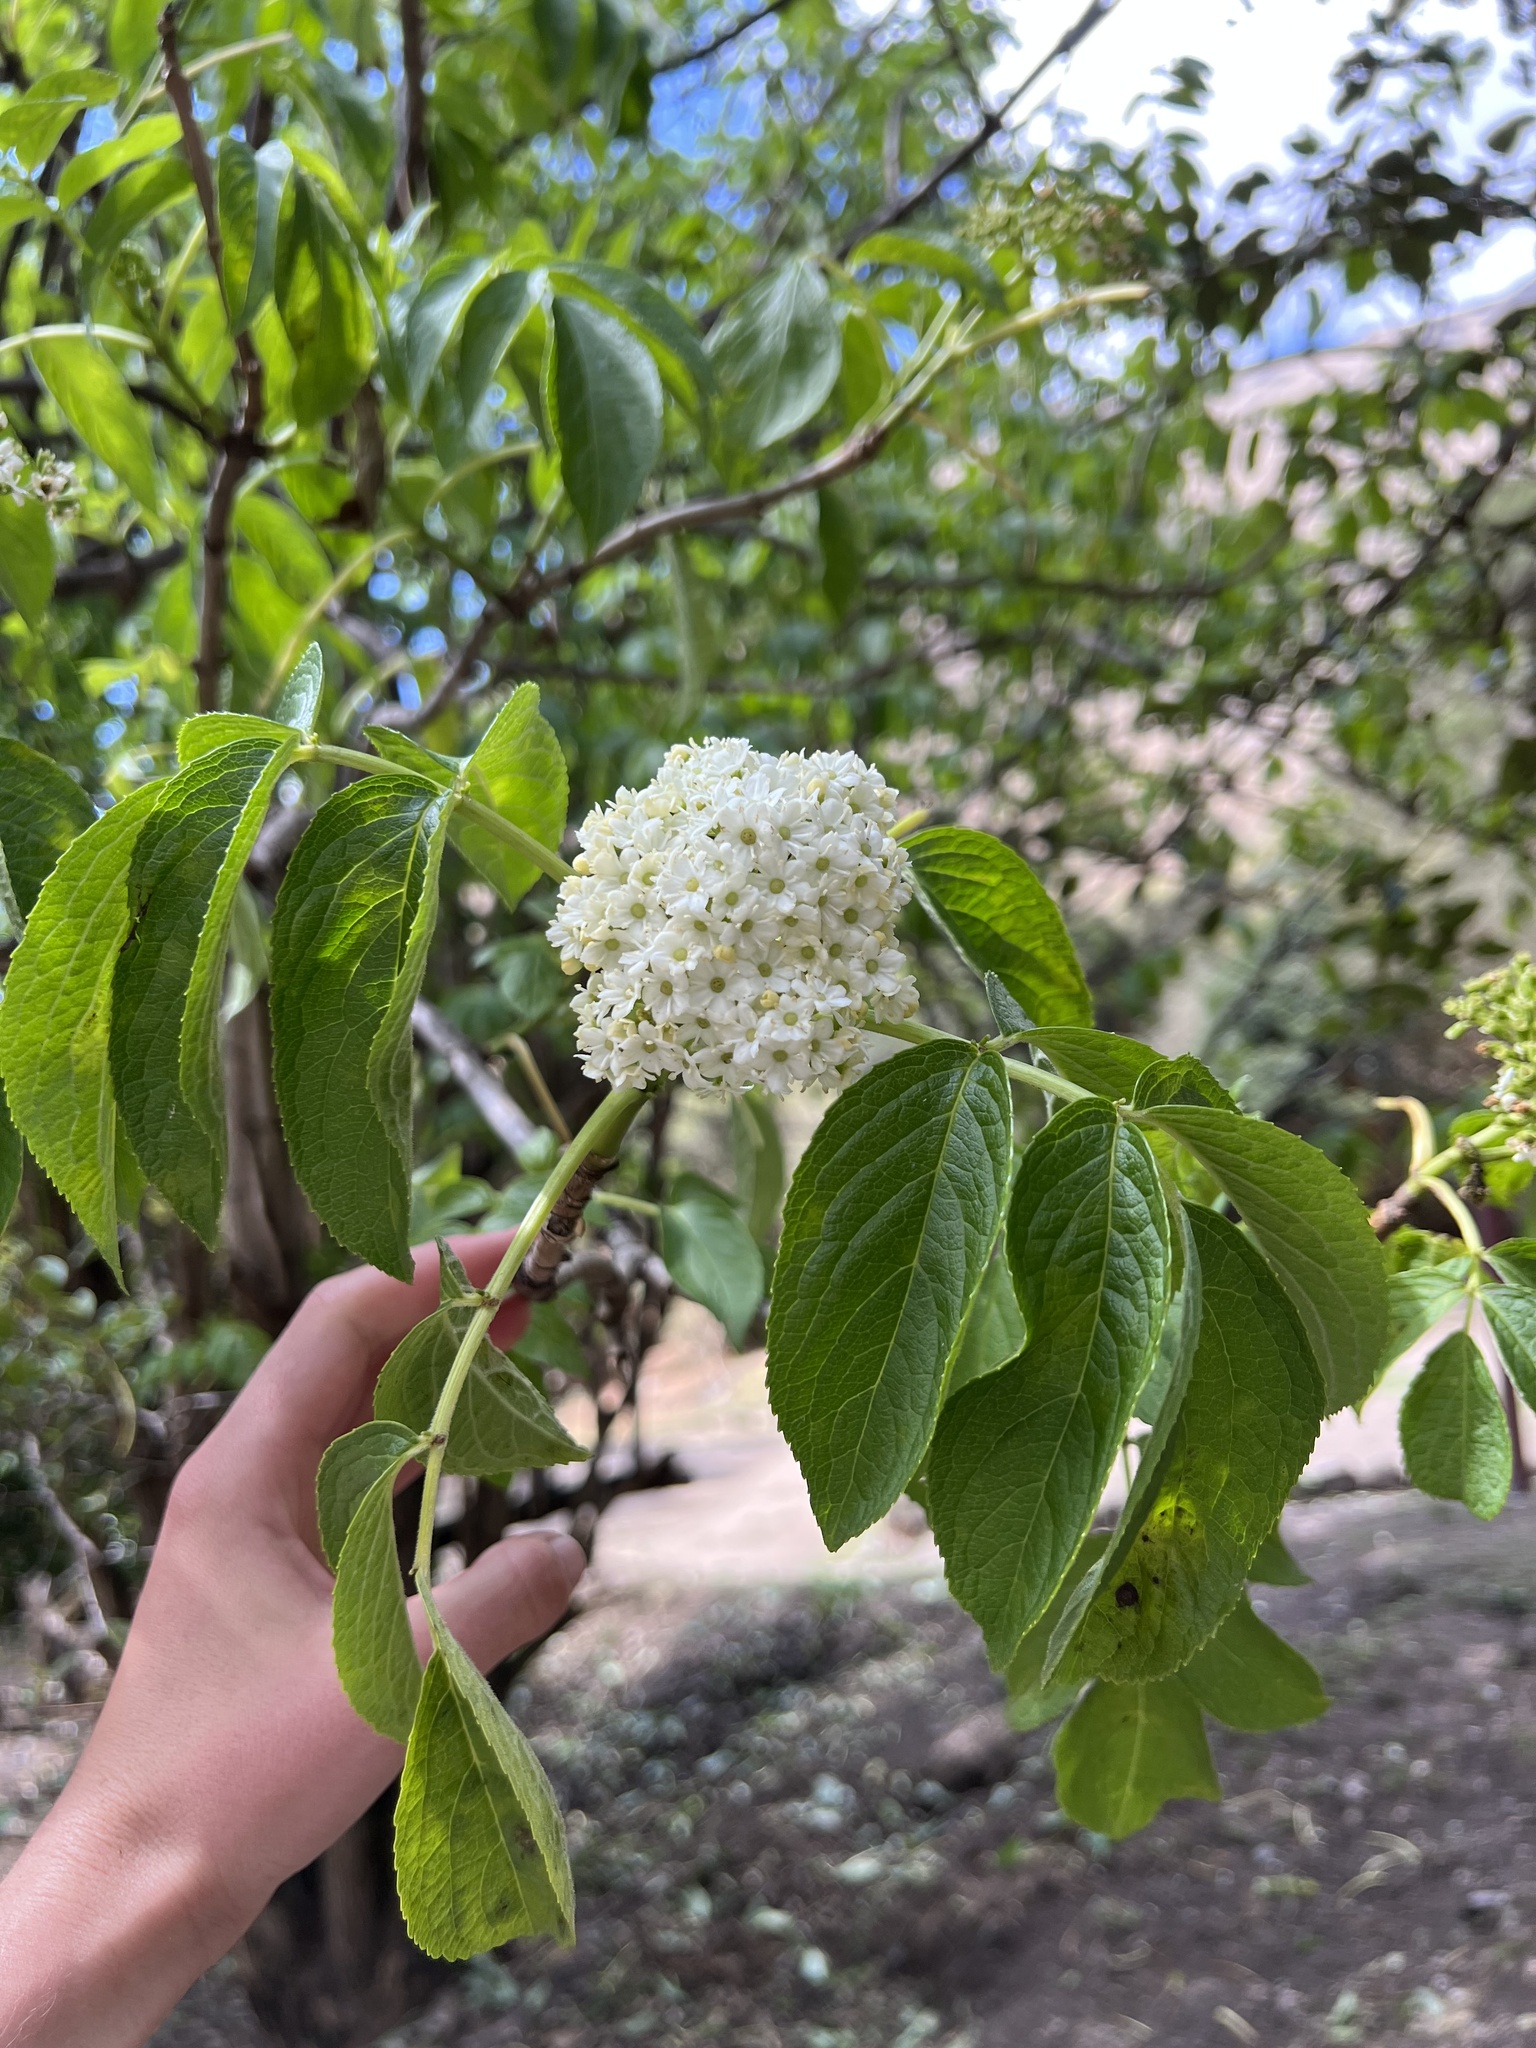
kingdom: Plantae
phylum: Tracheophyta
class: Magnoliopsida
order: Dipsacales
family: Viburnaceae
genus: Sambucus
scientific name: Sambucus peruviana
